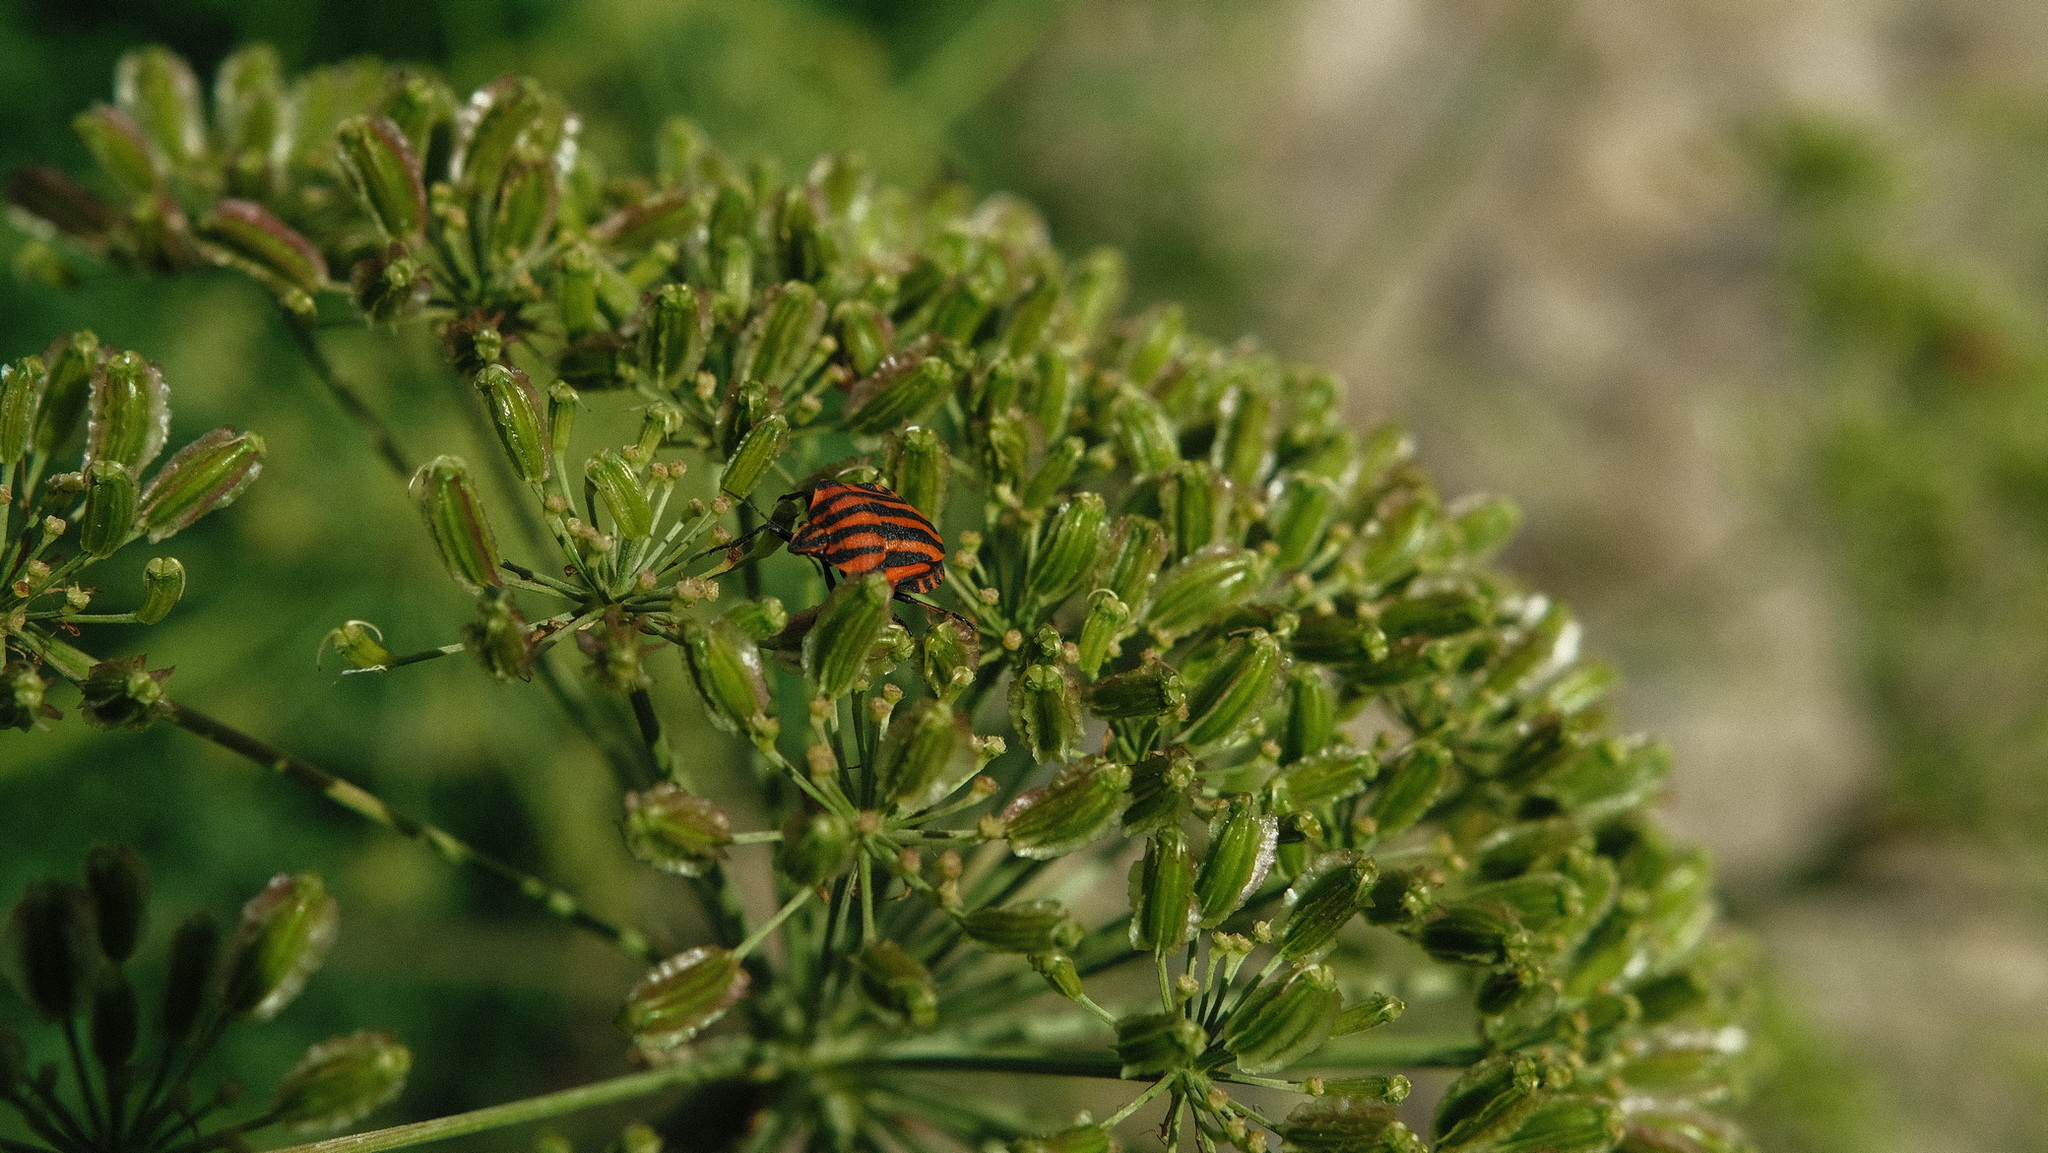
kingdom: Animalia
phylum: Arthropoda
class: Insecta
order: Hemiptera
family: Pentatomidae
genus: Graphosoma
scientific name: Graphosoma italicum
